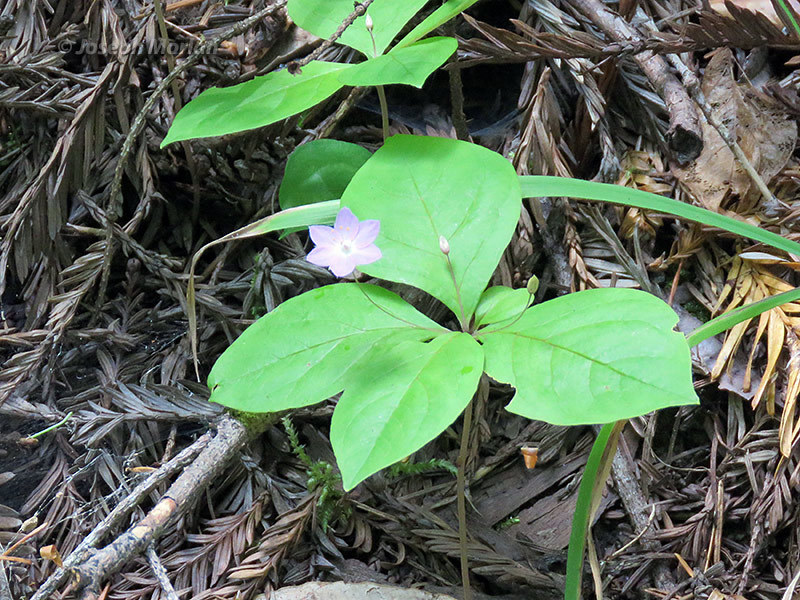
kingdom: Plantae
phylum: Tracheophyta
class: Magnoliopsida
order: Ericales
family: Primulaceae
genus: Lysimachia
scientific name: Lysimachia latifolia
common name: Pacific starflower
